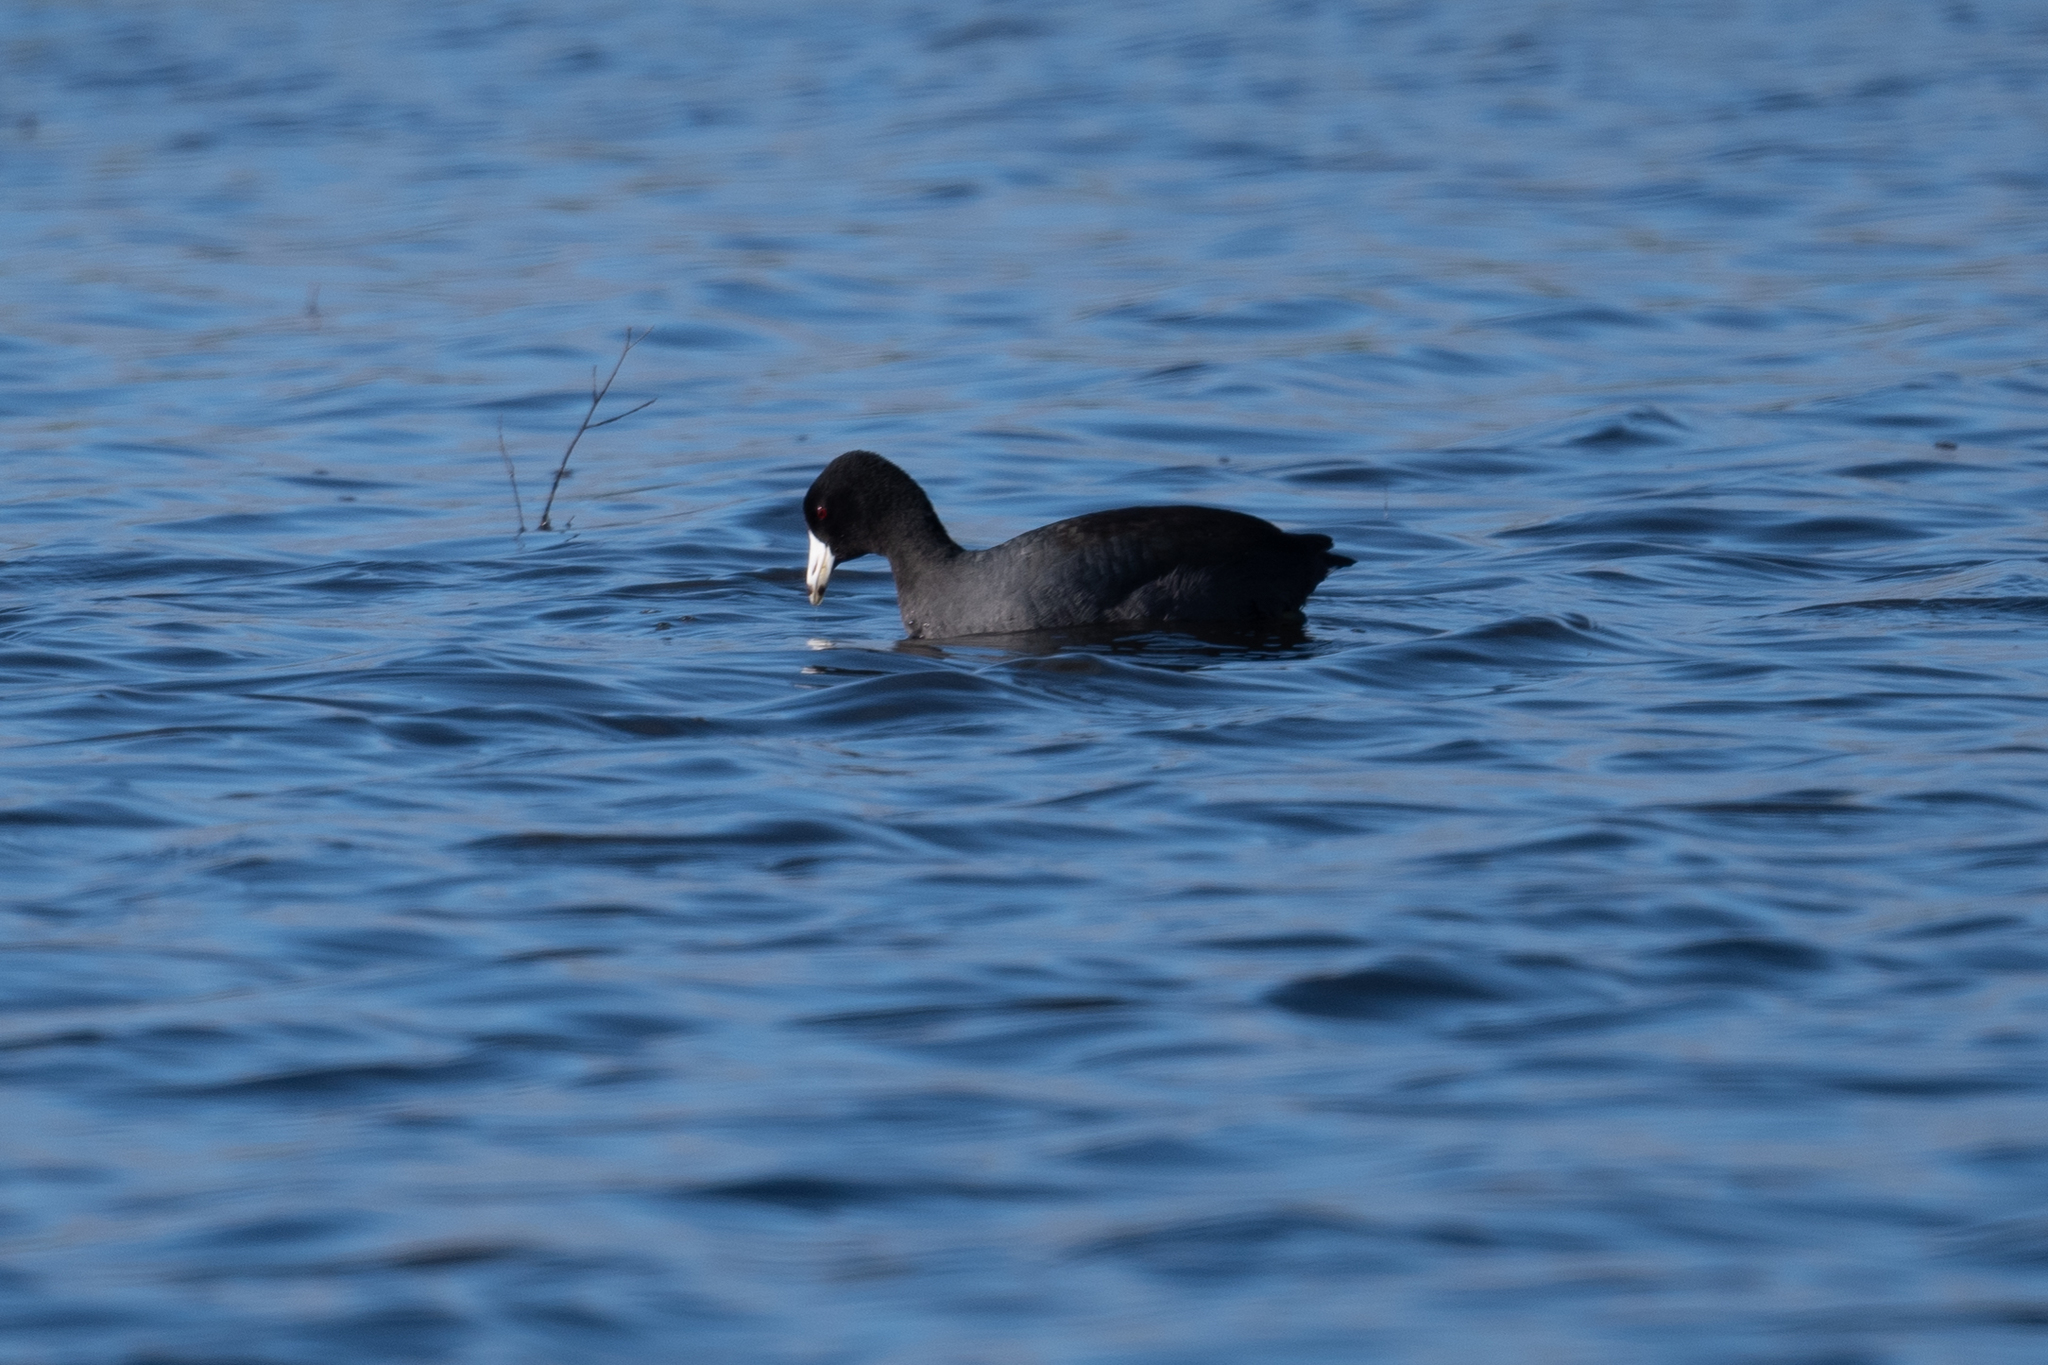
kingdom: Animalia
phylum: Chordata
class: Aves
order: Gruiformes
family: Rallidae
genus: Fulica
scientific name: Fulica americana
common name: American coot
